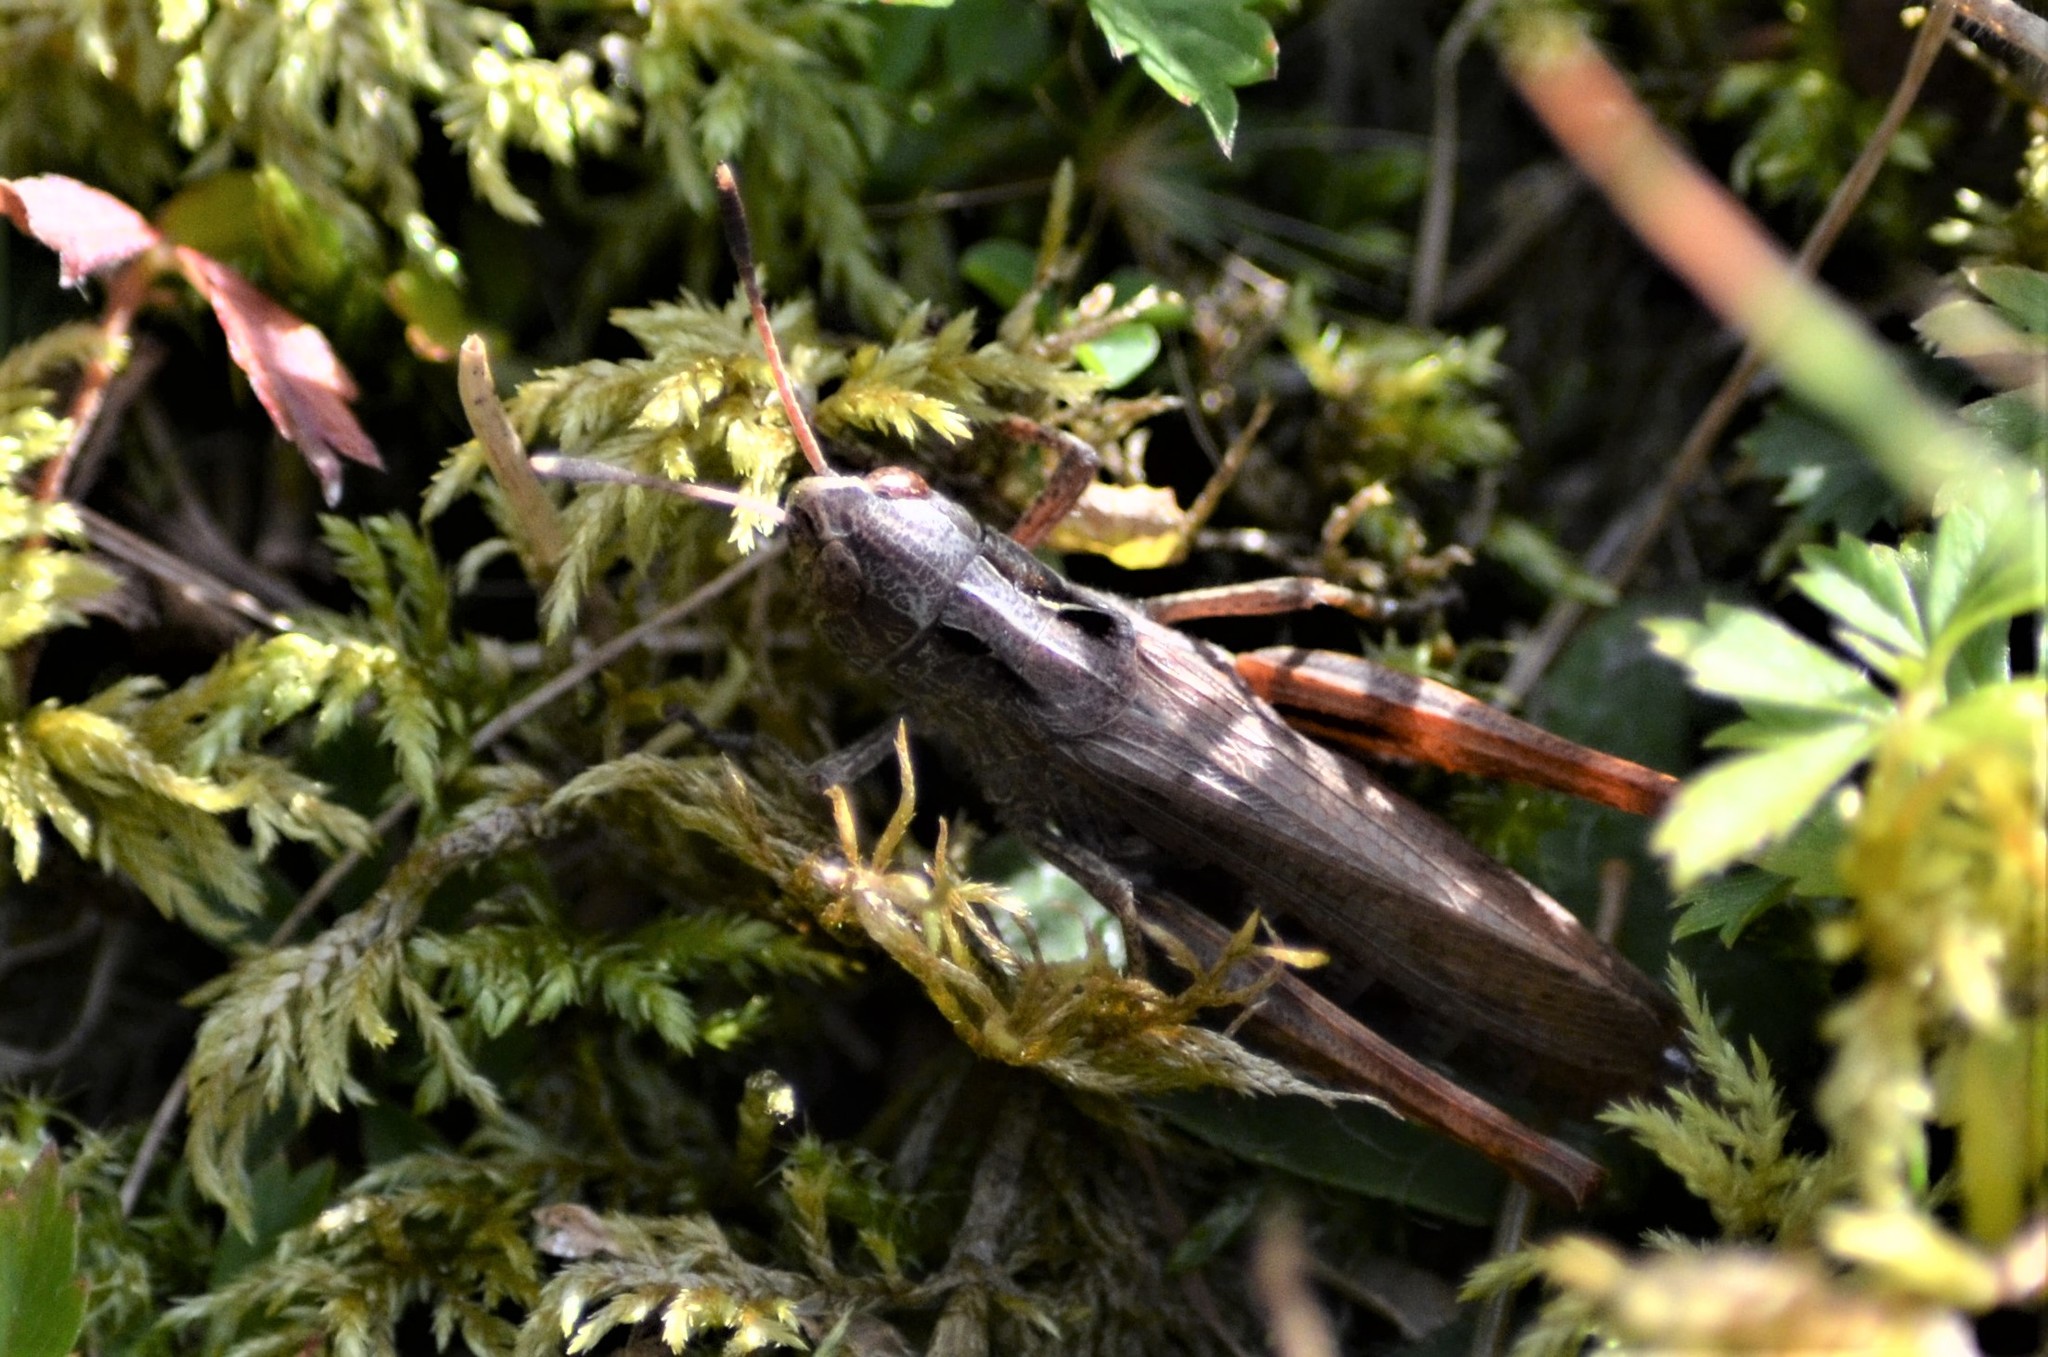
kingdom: Animalia
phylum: Arthropoda
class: Insecta
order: Orthoptera
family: Acrididae
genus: Gomphocerippus
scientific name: Gomphocerippus rufus
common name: Rufous grasshopper
